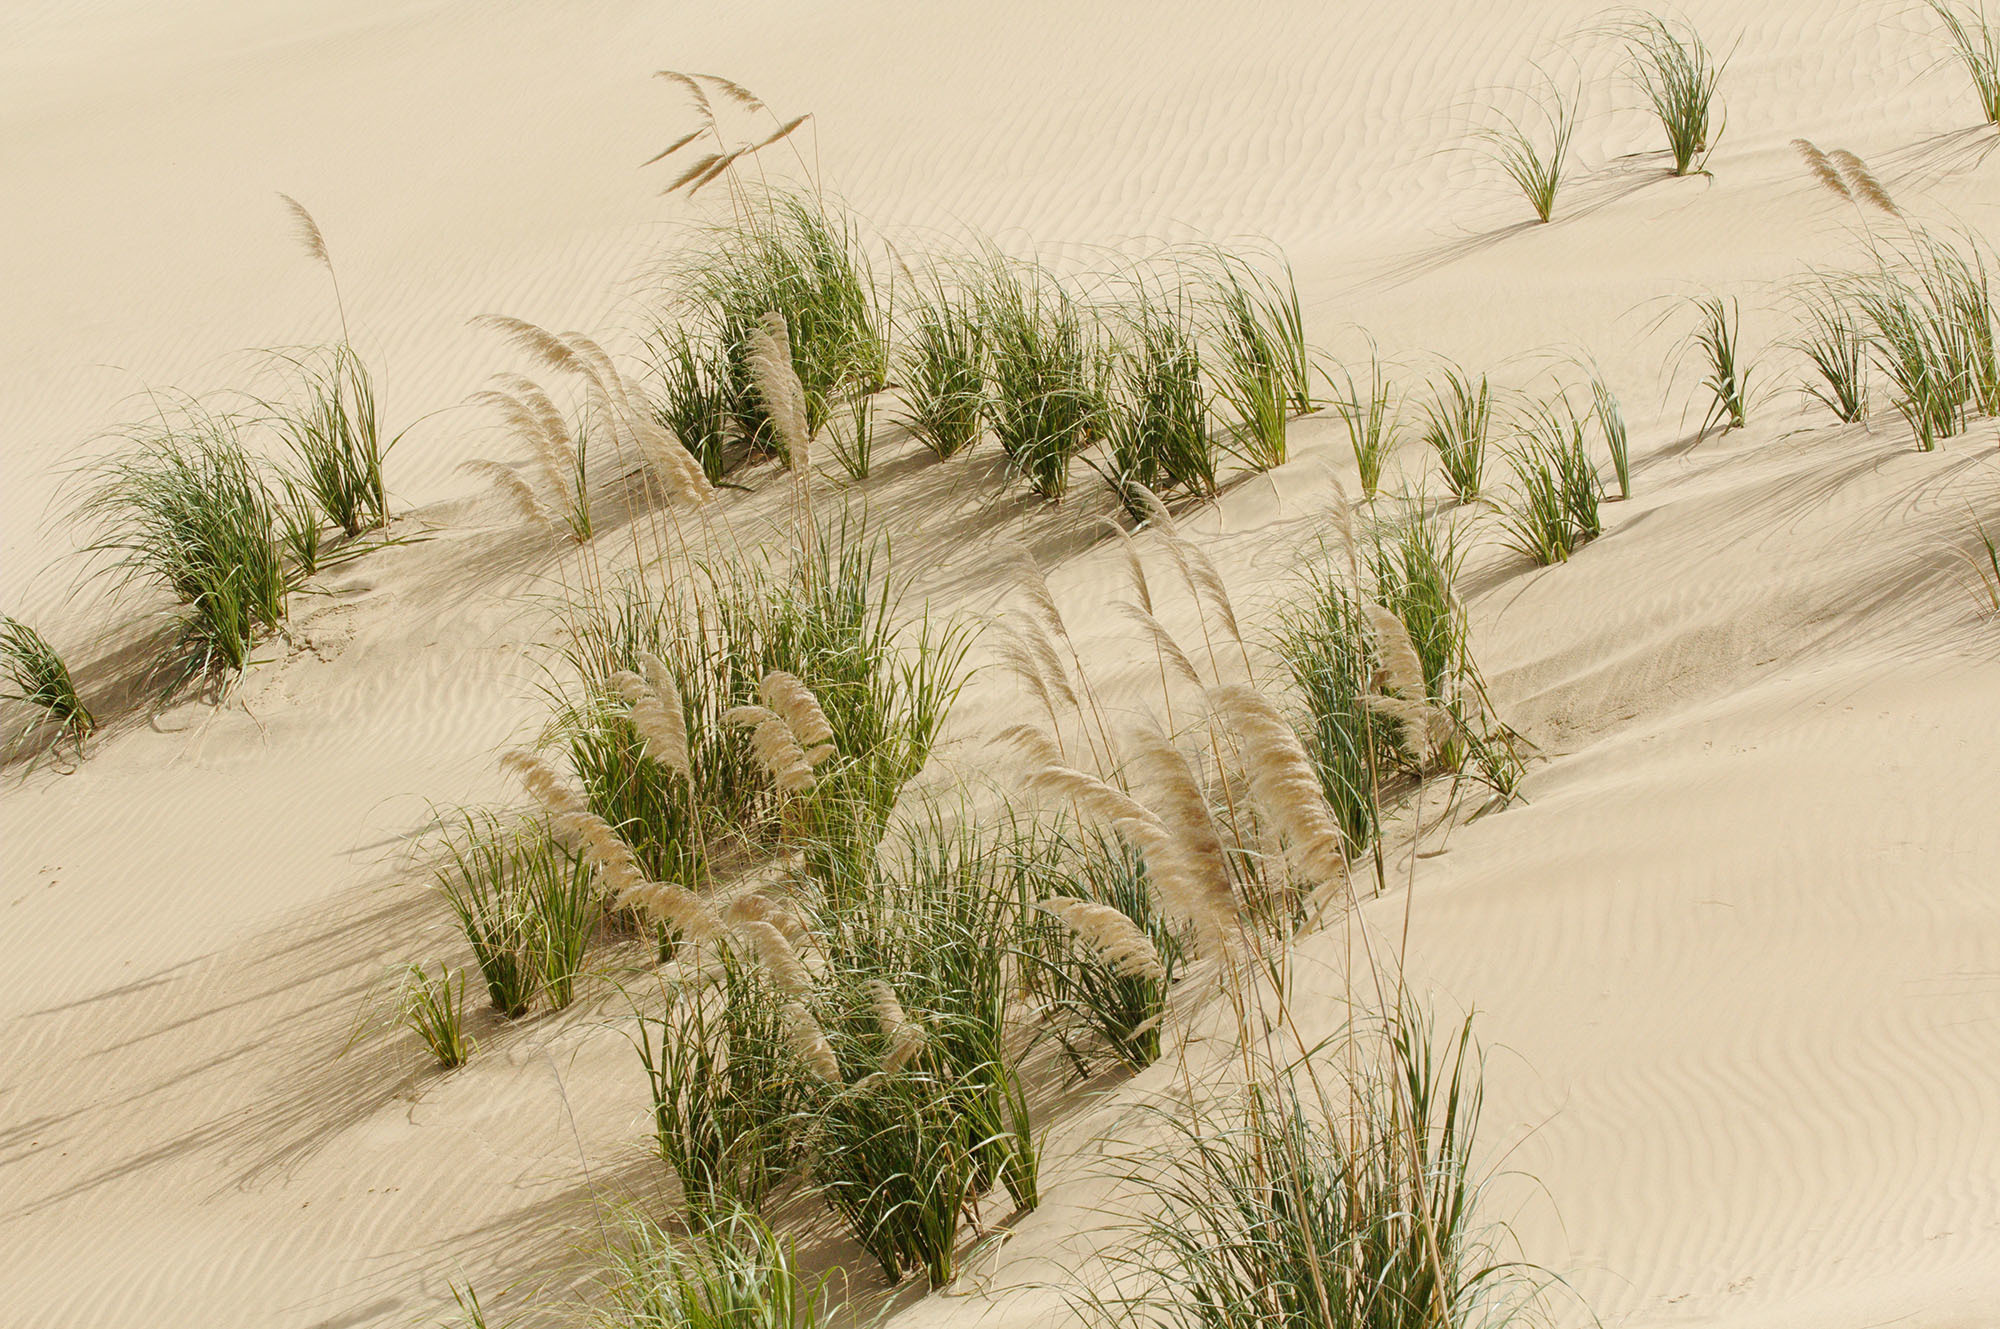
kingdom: Plantae
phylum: Tracheophyta
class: Liliopsida
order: Poales
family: Poaceae
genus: Austroderia
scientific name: Austroderia splendens
